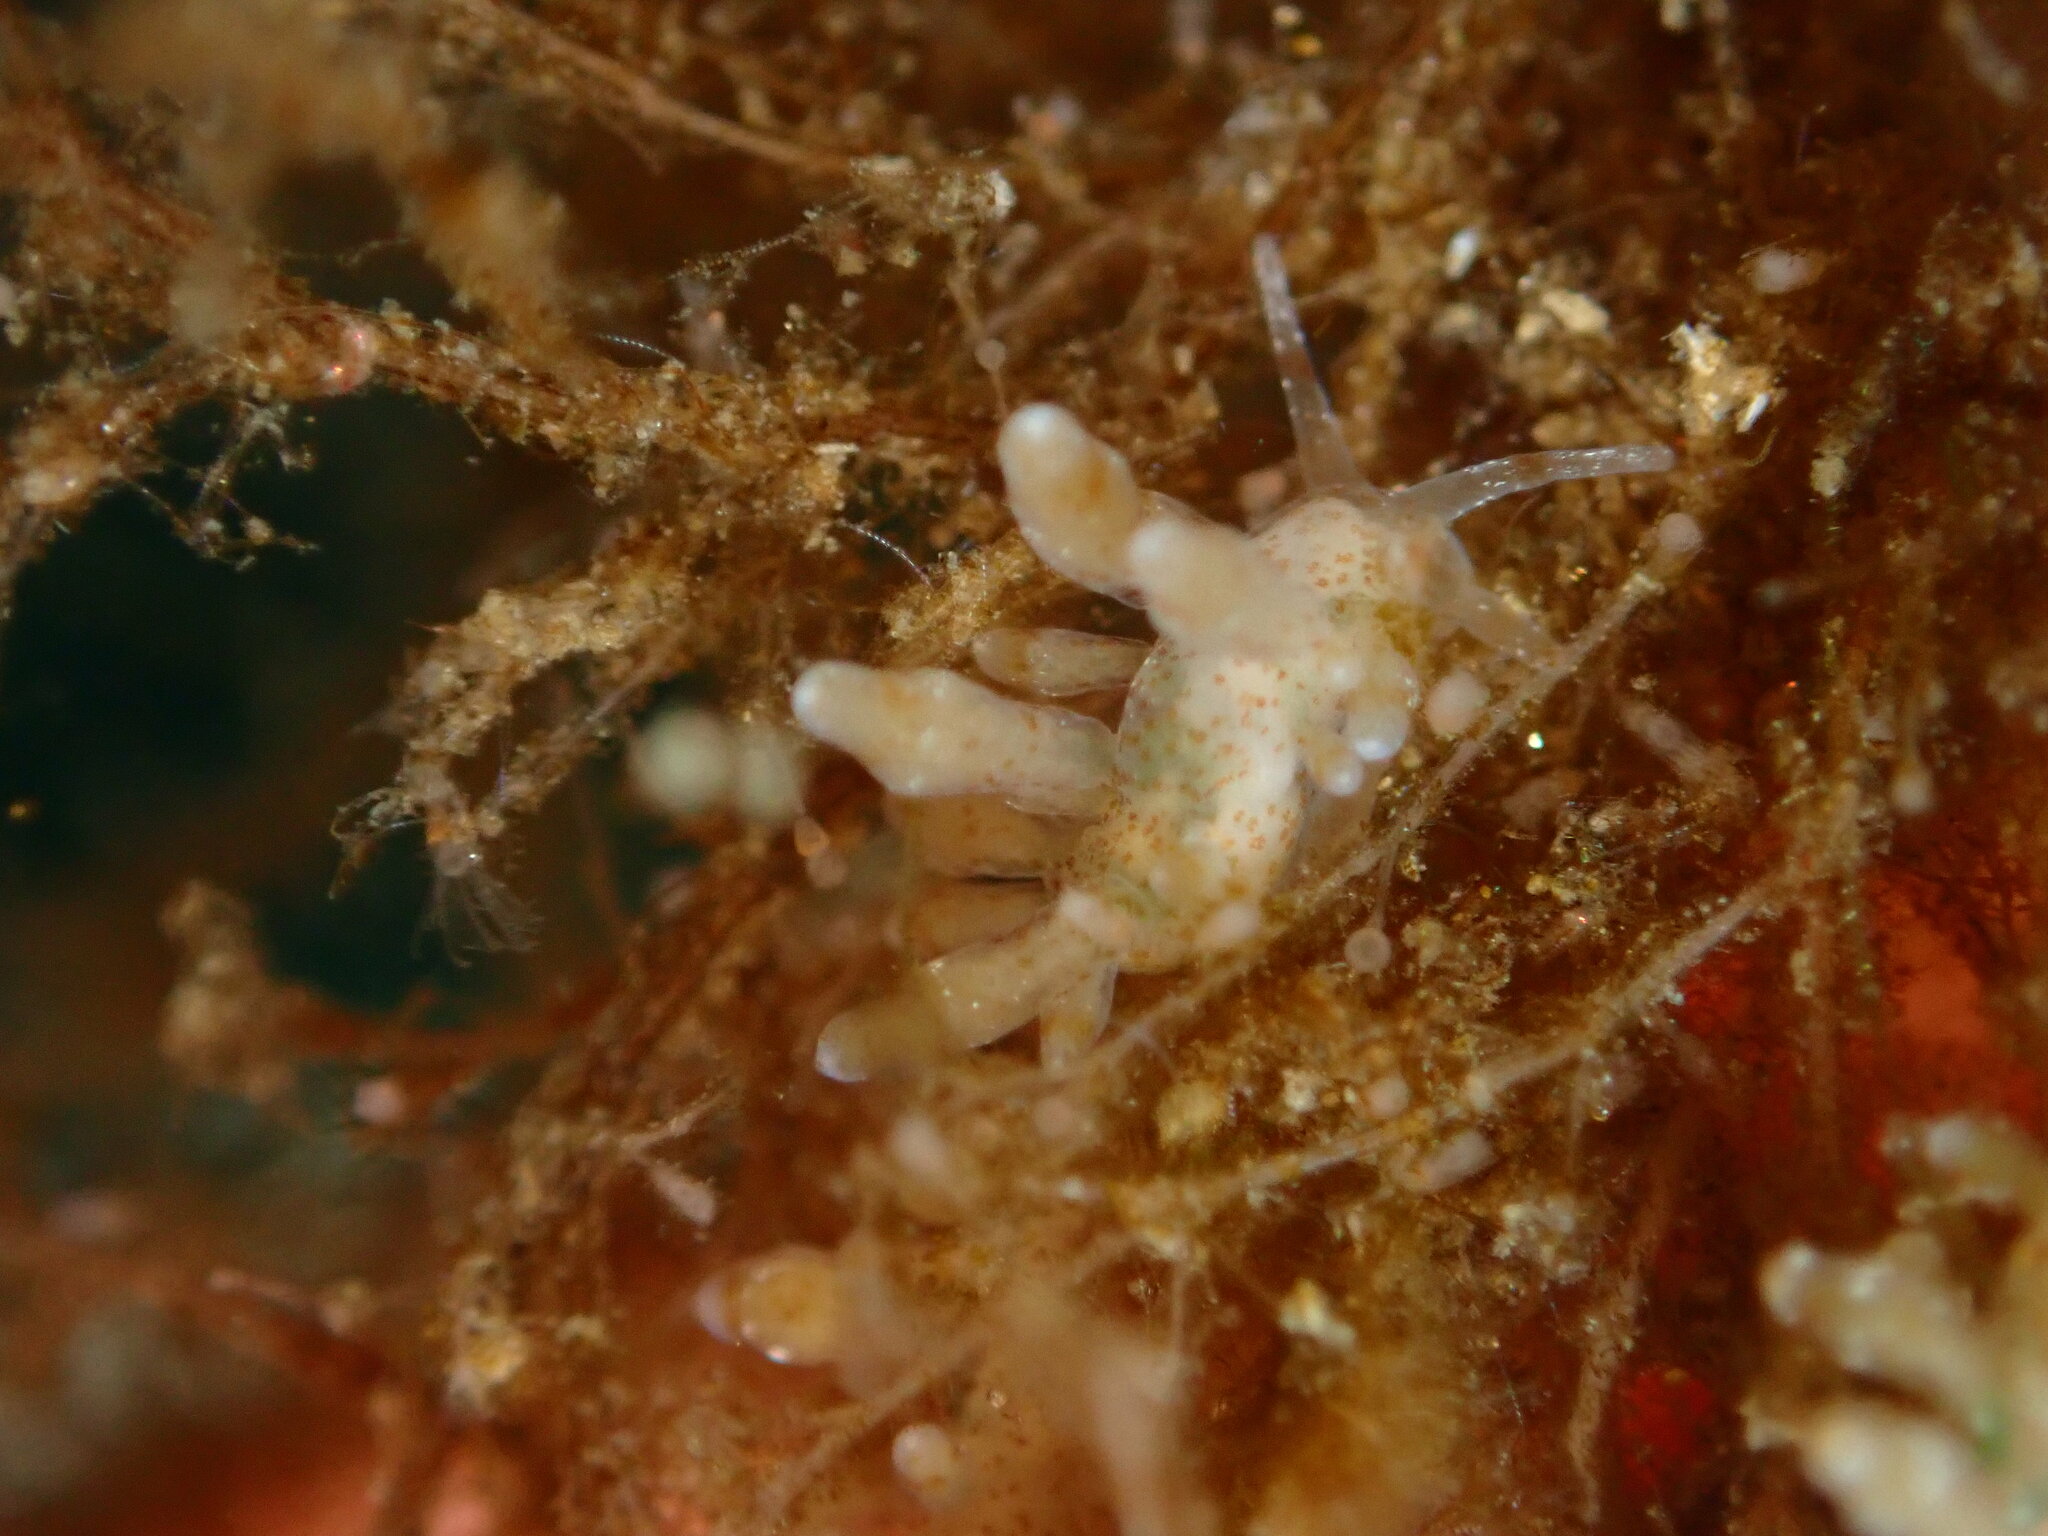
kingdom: Animalia
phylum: Mollusca
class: Gastropoda
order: Nudibranchia
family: Eubranchidae
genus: Eubranchus
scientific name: Eubranchus olivaceus
